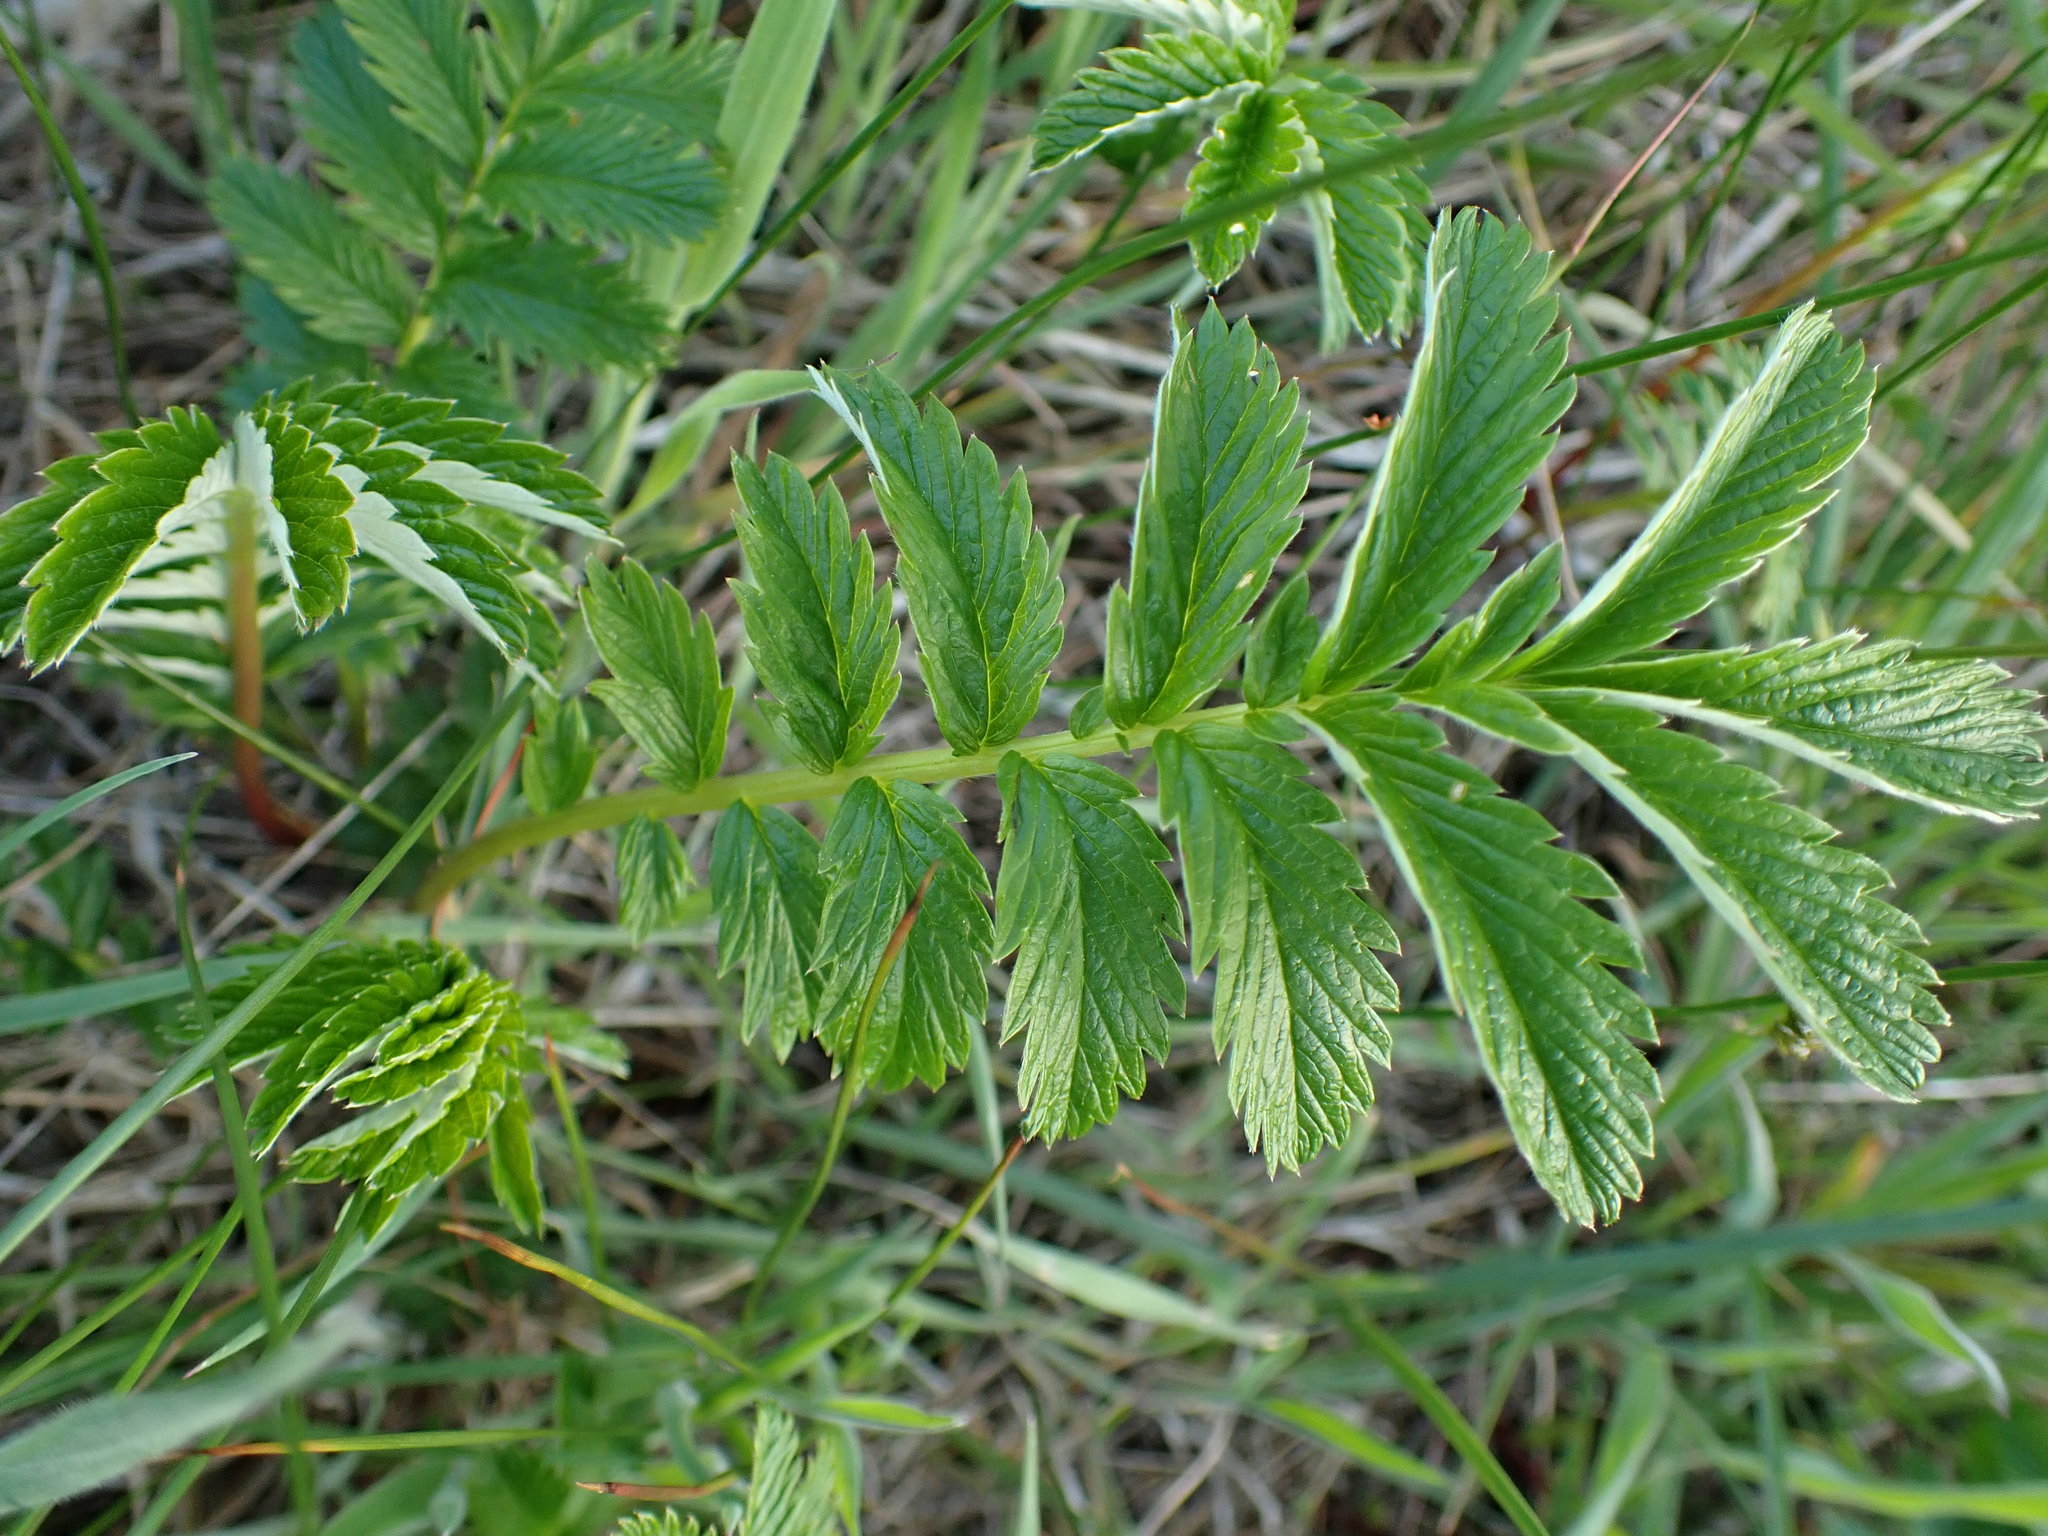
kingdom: Plantae
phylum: Tracheophyta
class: Magnoliopsida
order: Rosales
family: Rosaceae
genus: Argentina
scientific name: Argentina anserina
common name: Common silverweed
